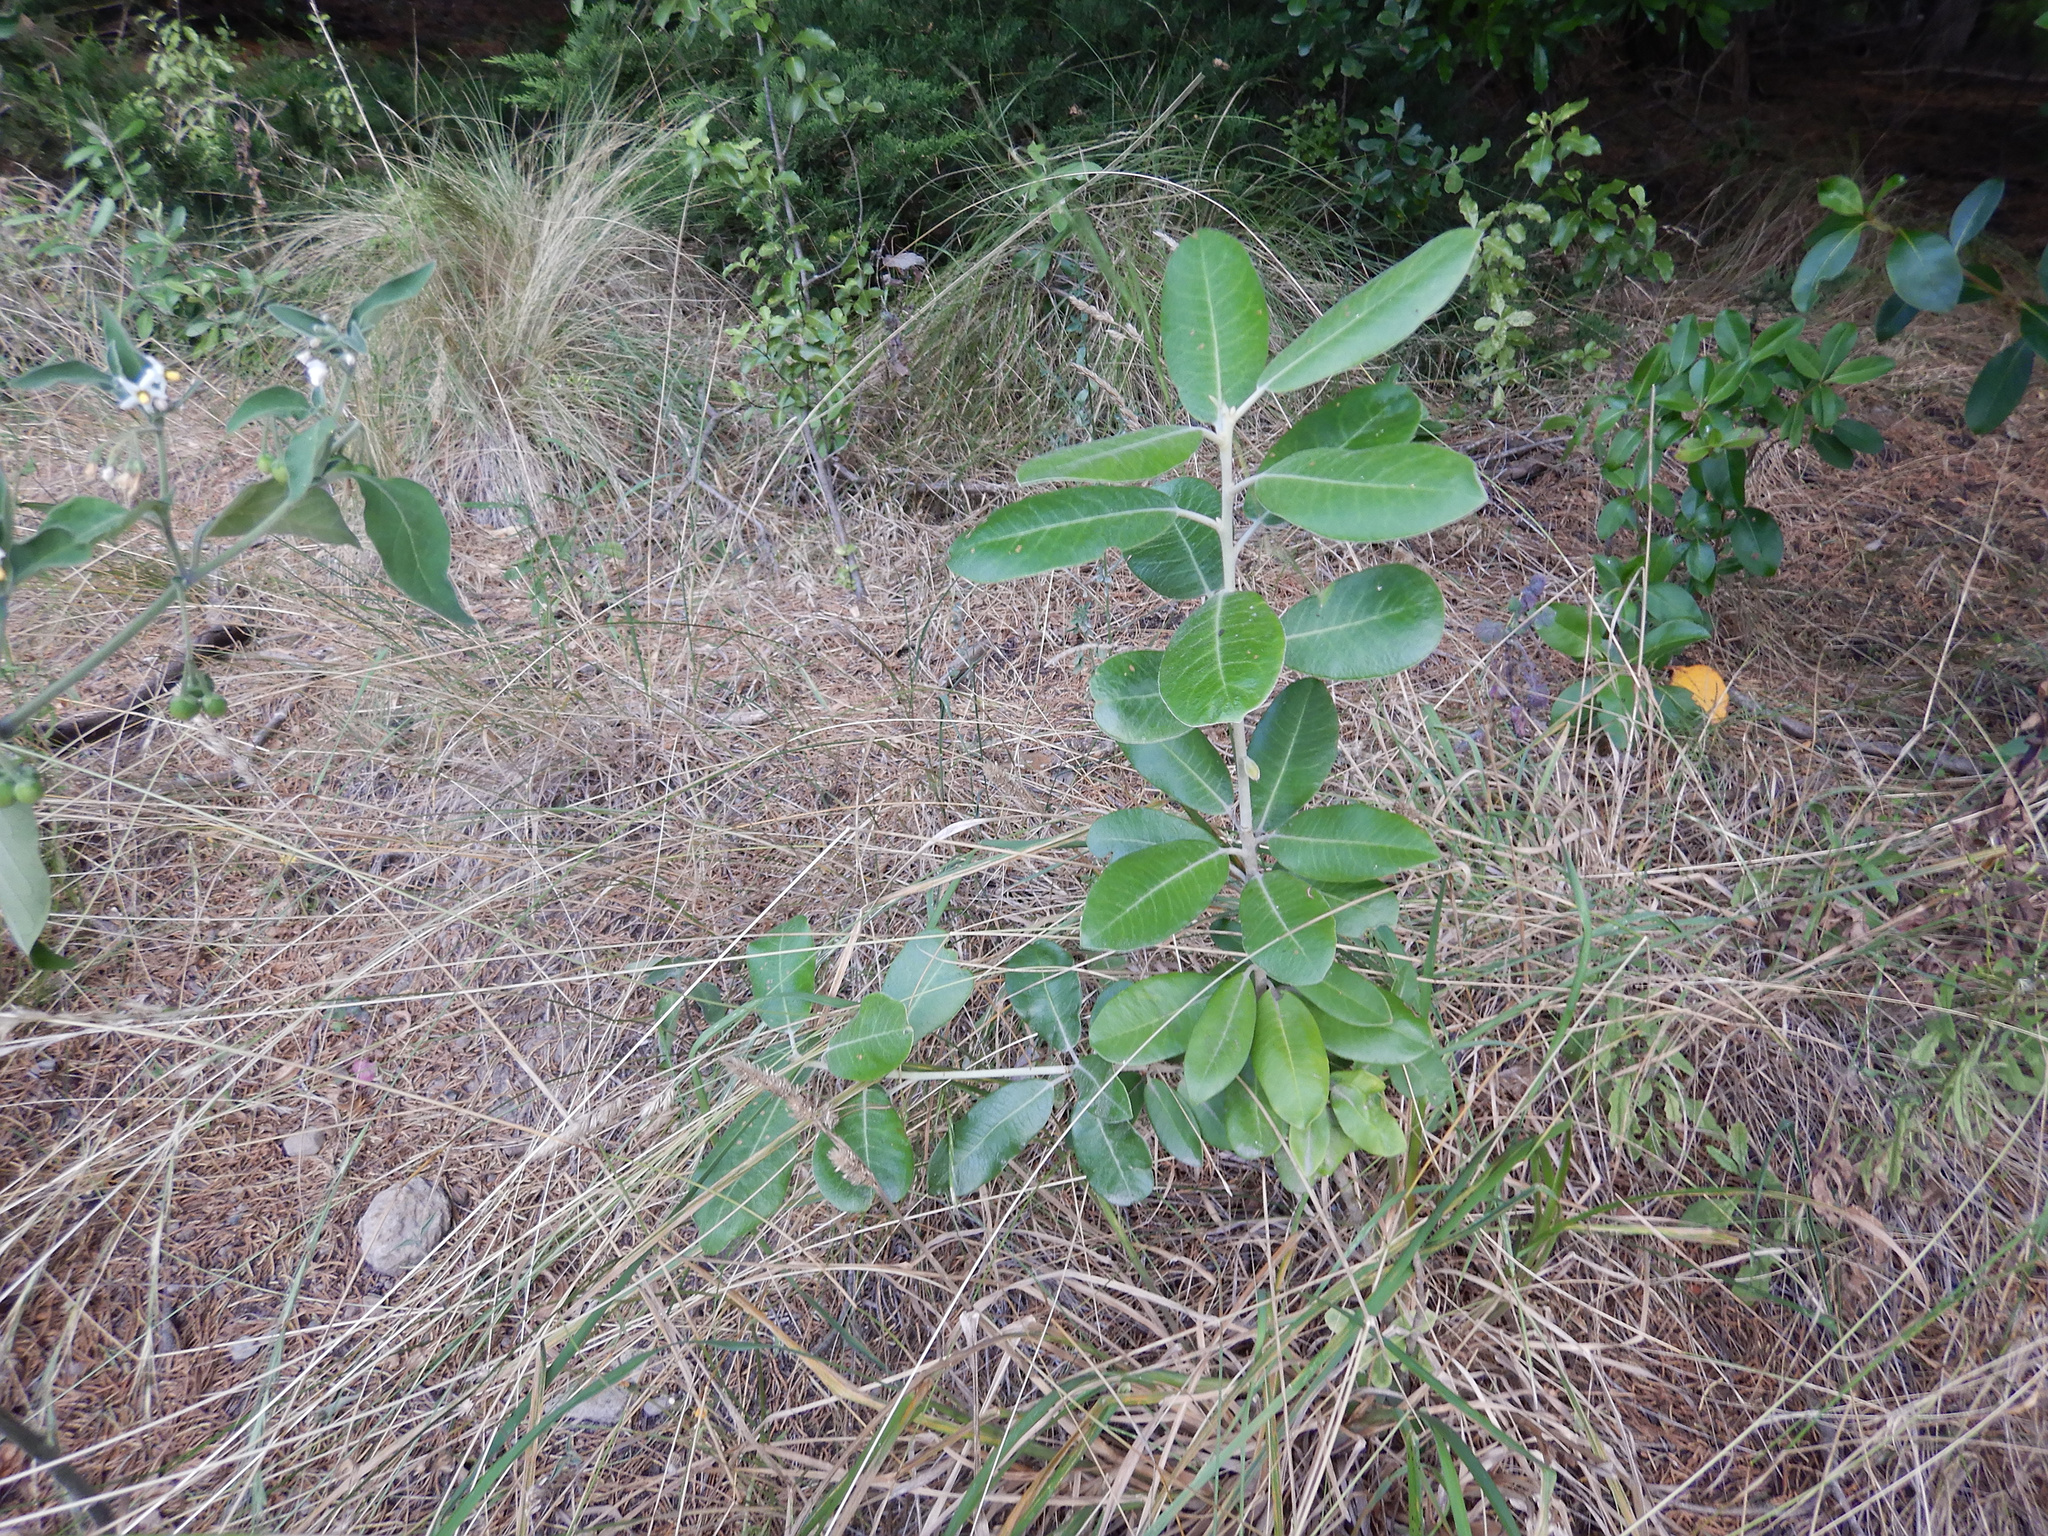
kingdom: Plantae
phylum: Tracheophyta
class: Magnoliopsida
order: Apiales
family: Pittosporaceae
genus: Pittosporum
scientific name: Pittosporum ralphii
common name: Ralph's desertwillow
